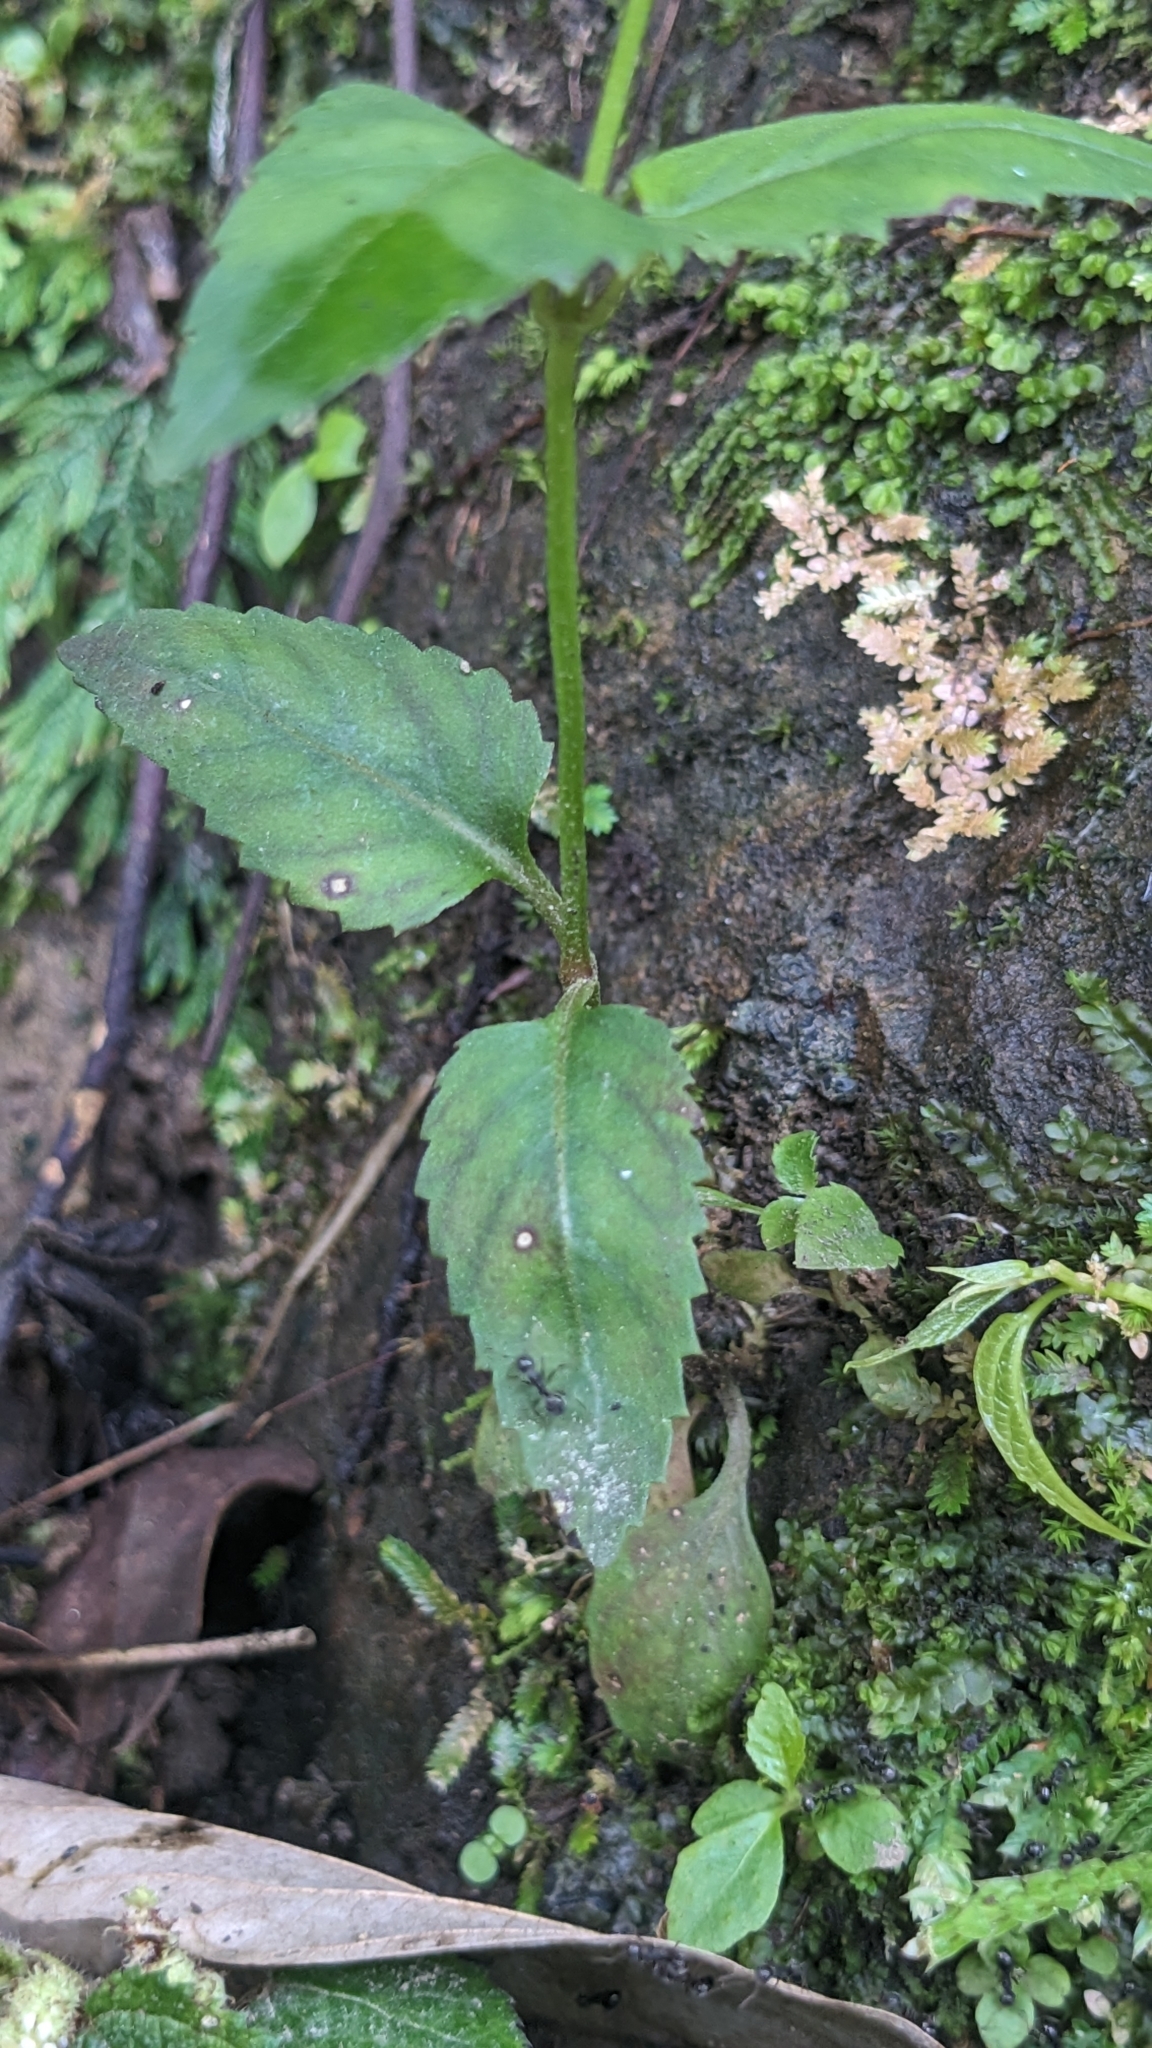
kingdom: Plantae
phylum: Tracheophyta
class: Magnoliopsida
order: Lamiales
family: Linderniaceae
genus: Vandellia
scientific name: Vandellia scutellariiformis
